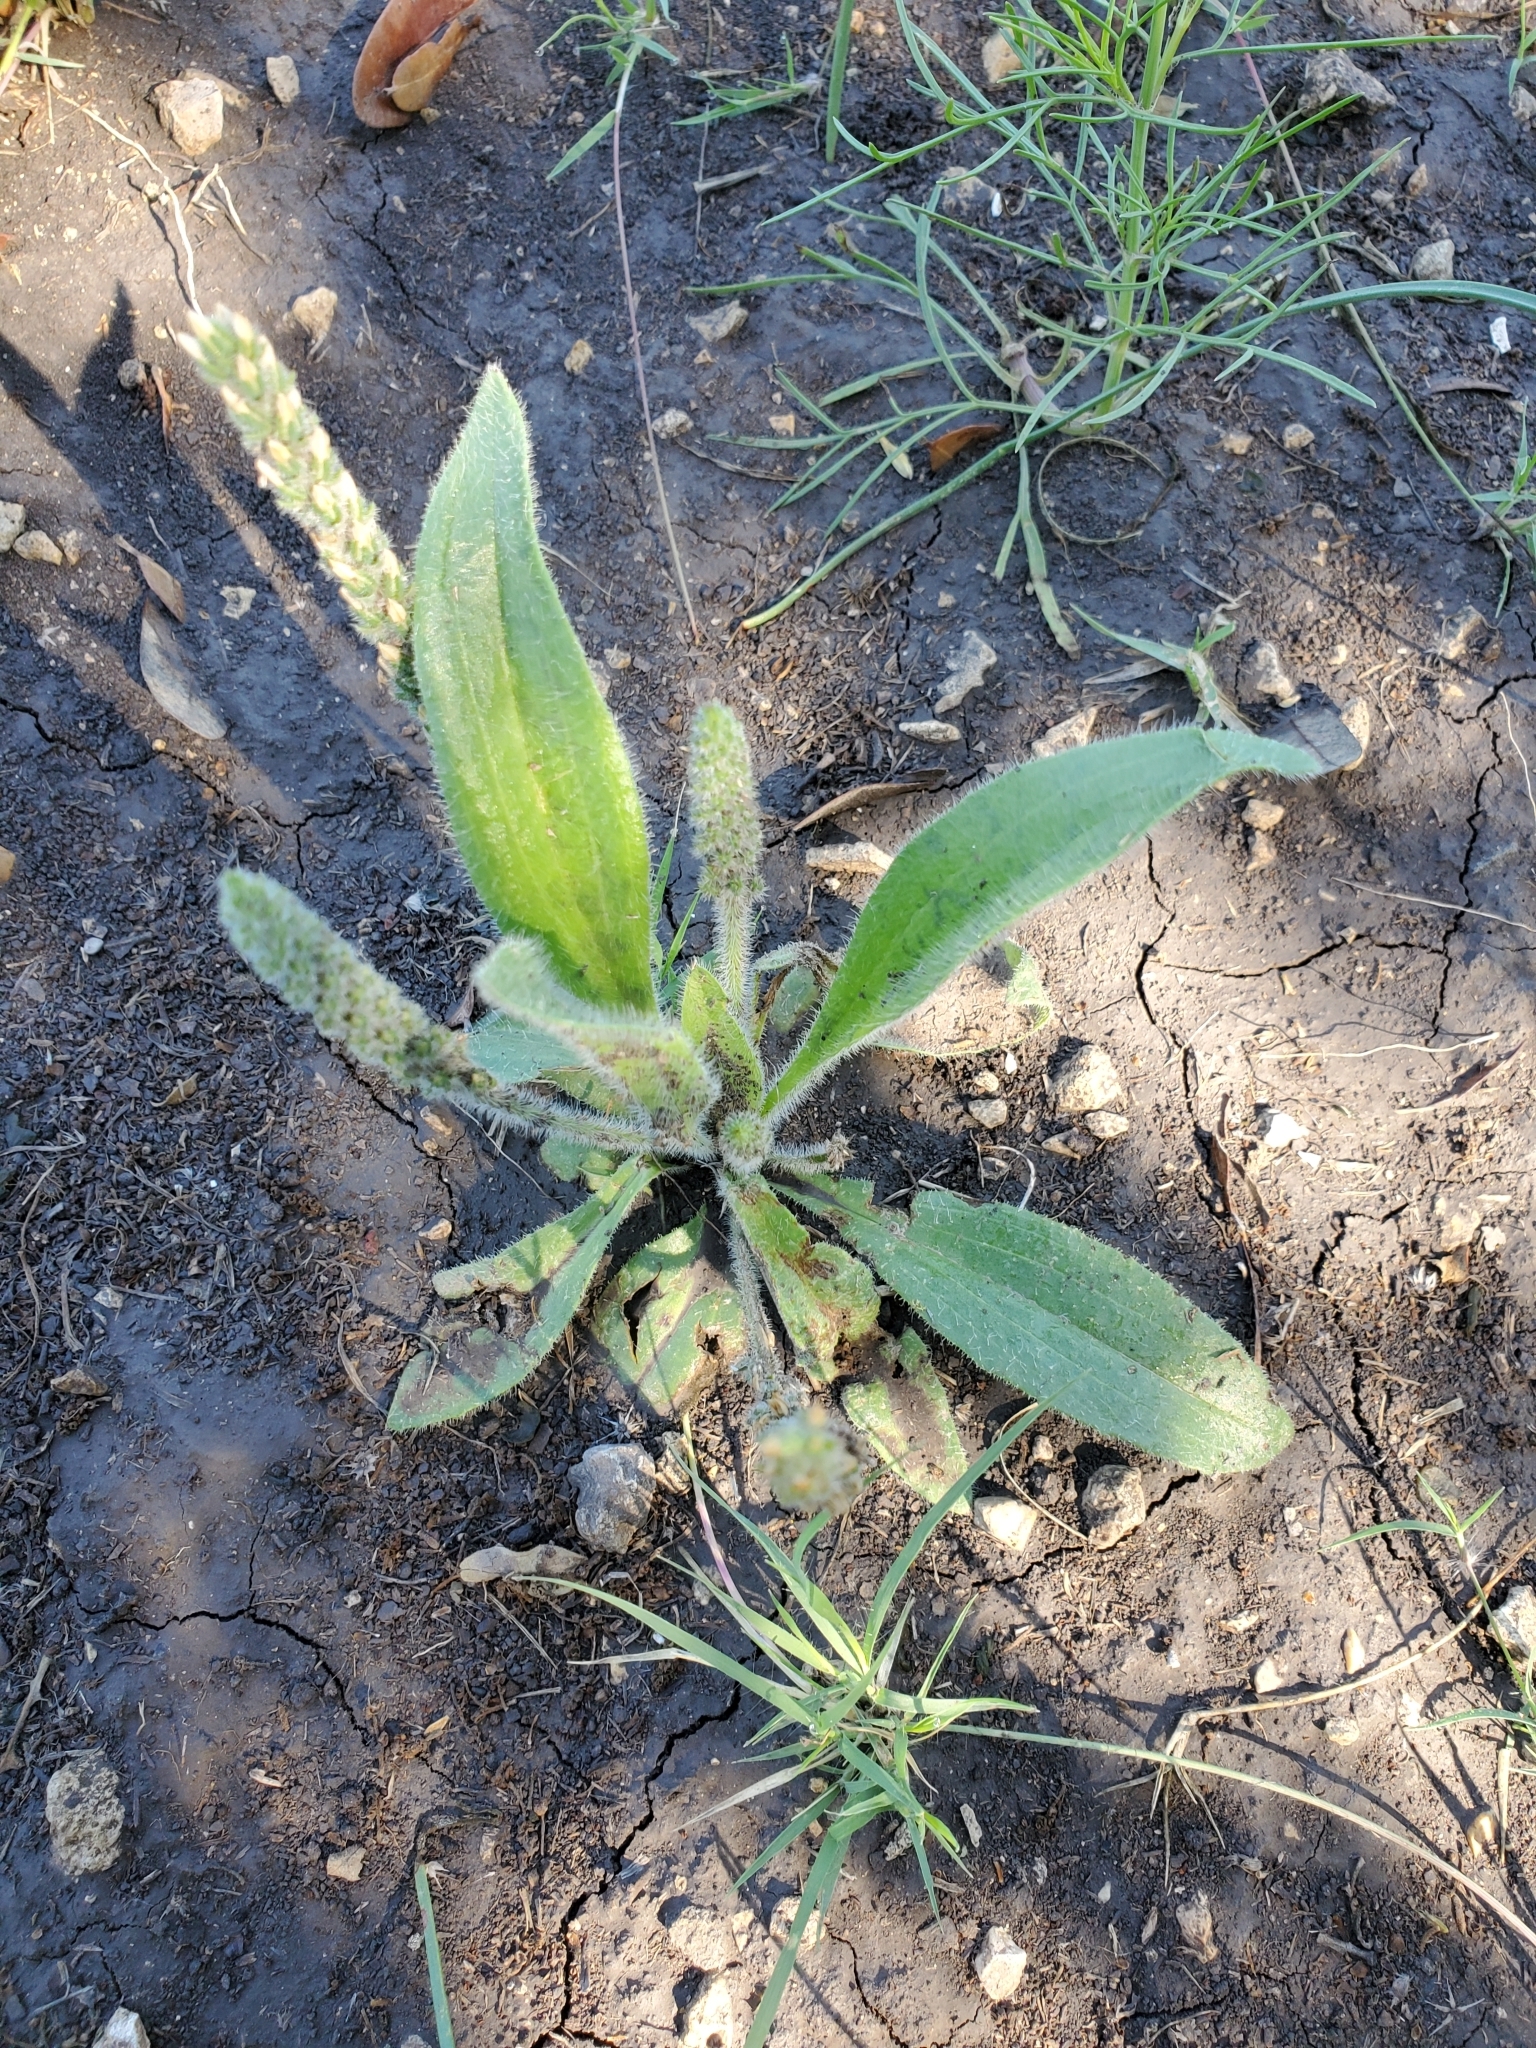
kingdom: Plantae
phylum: Tracheophyta
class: Magnoliopsida
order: Lamiales
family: Plantaginaceae
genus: Plantago
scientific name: Plantago rhodosperma
